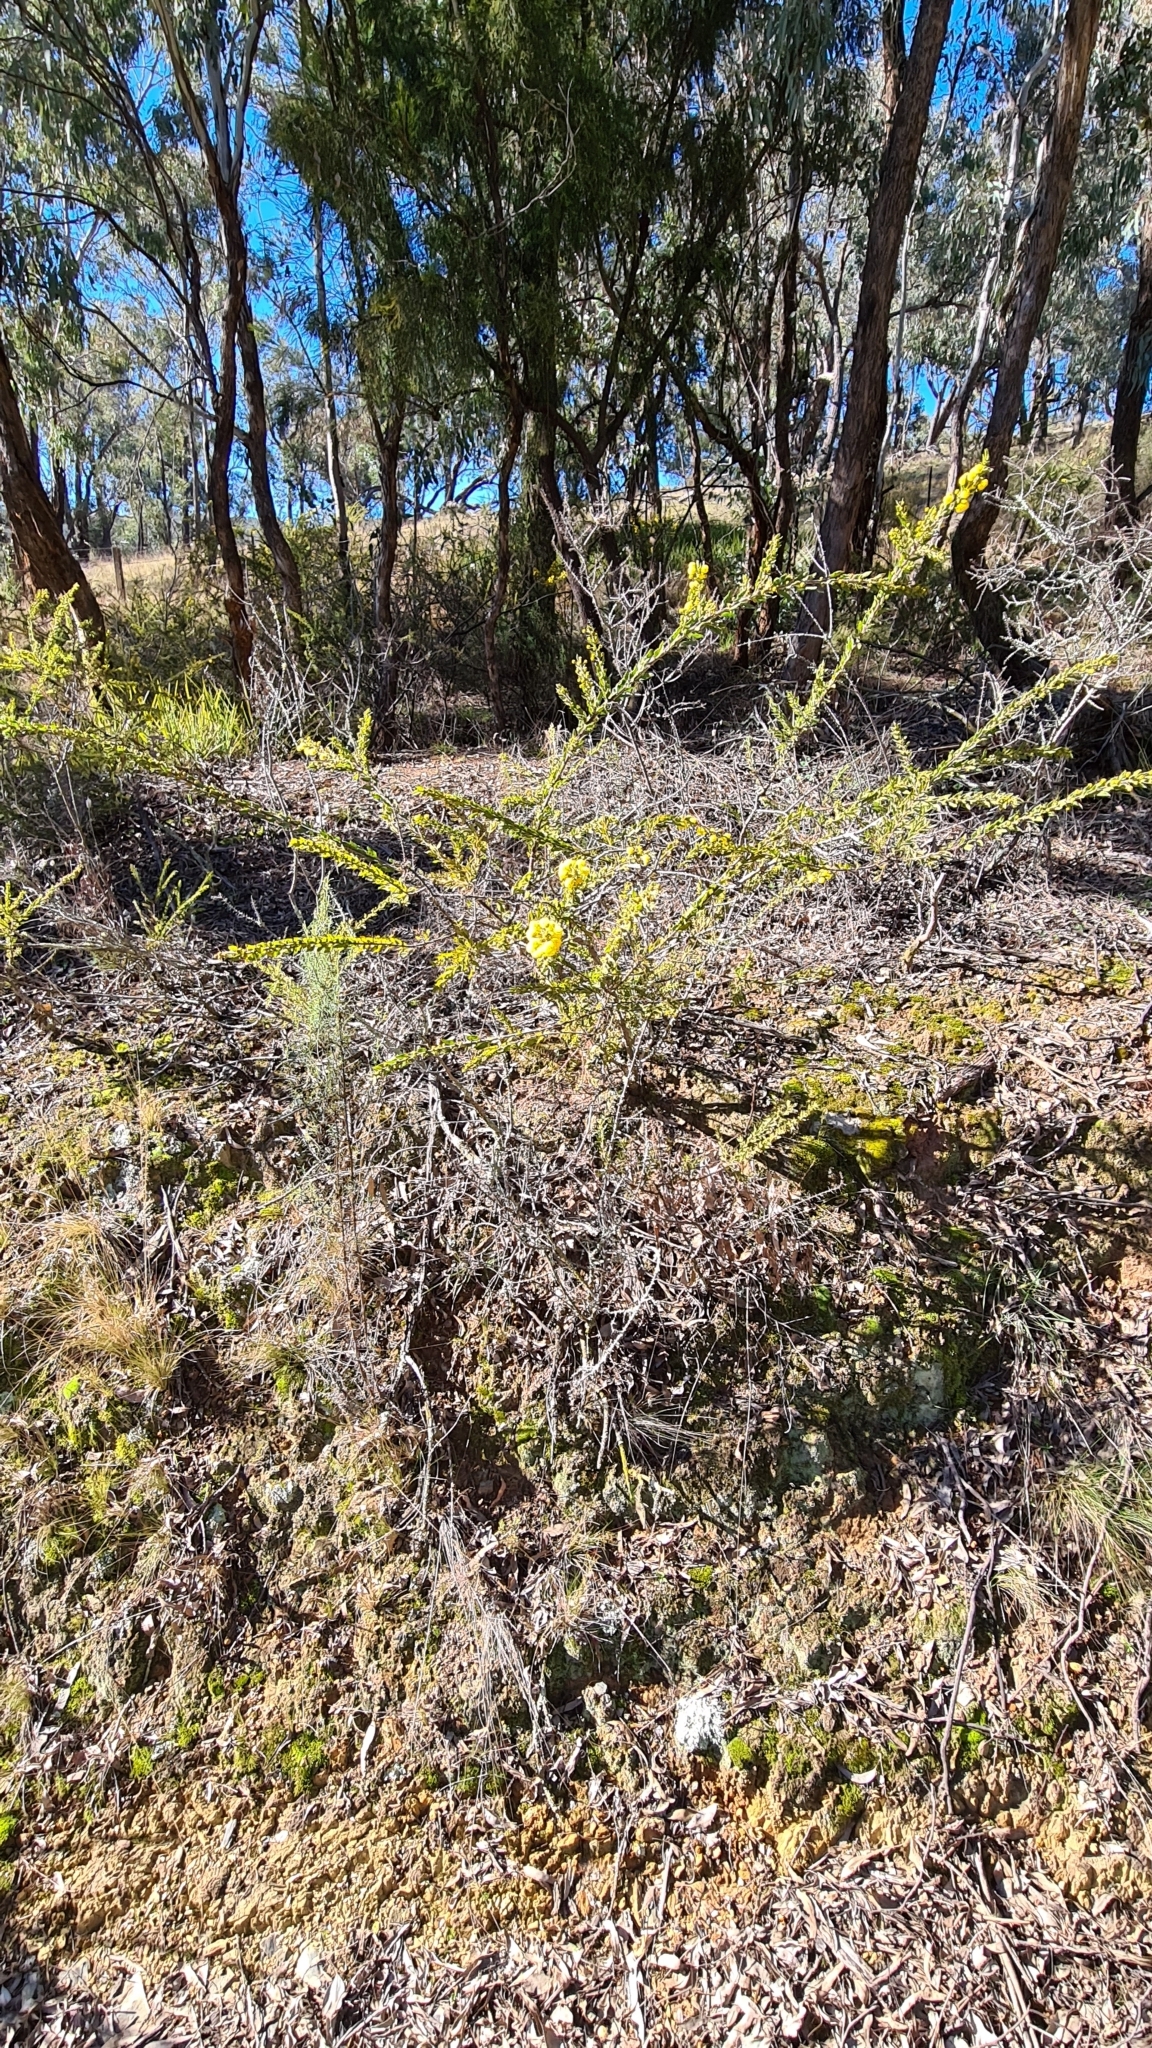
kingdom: Plantae
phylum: Tracheophyta
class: Magnoliopsida
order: Fabales
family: Fabaceae
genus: Acacia
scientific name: Acacia paradoxa
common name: Paradox acacia
